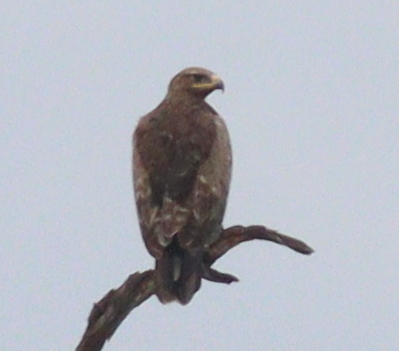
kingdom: Animalia
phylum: Chordata
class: Aves
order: Accipitriformes
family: Accipitridae
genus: Aquila
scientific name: Aquila nipalensis
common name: Steppe eagle
